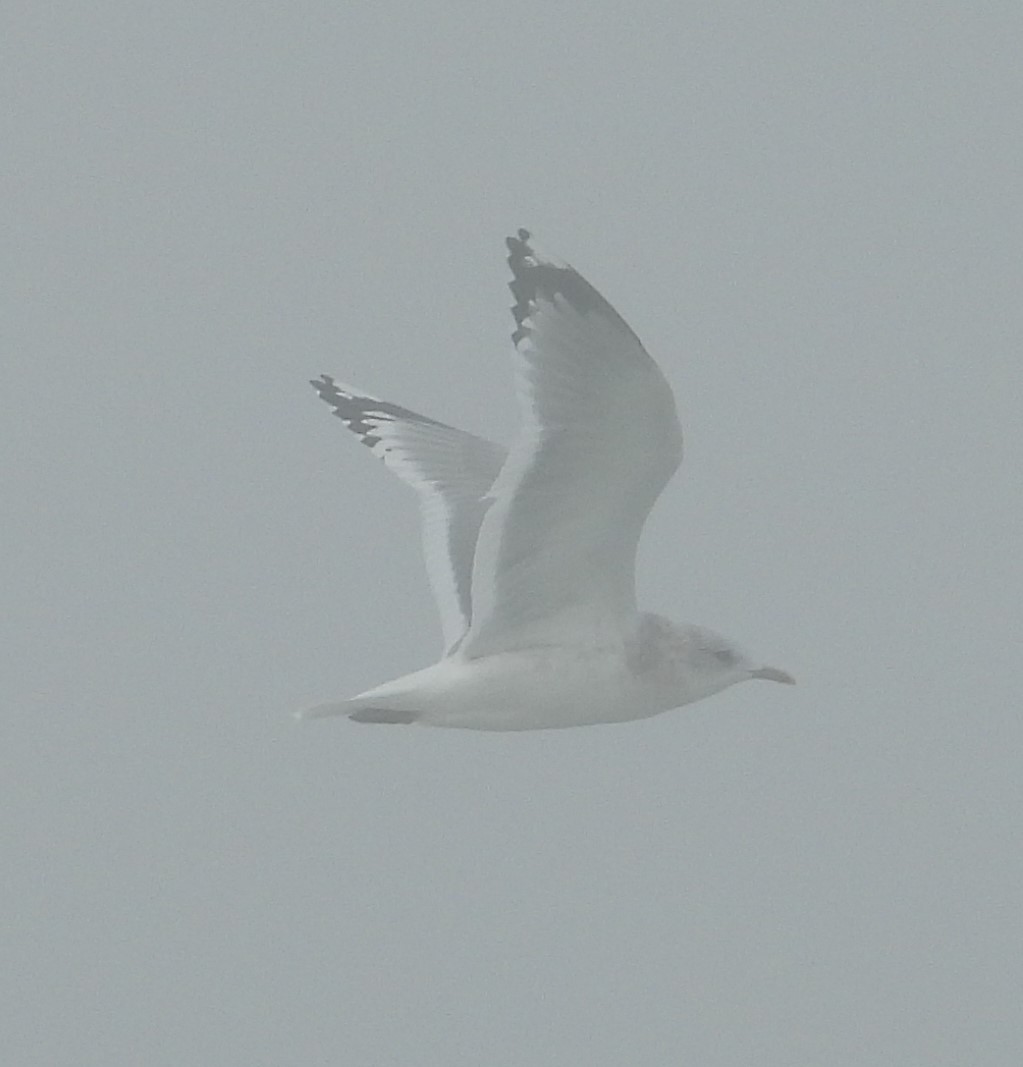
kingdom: Animalia
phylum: Chordata
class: Aves
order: Charadriiformes
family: Laridae
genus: Larus
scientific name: Larus brachyrhynchus
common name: Short-billed gull
